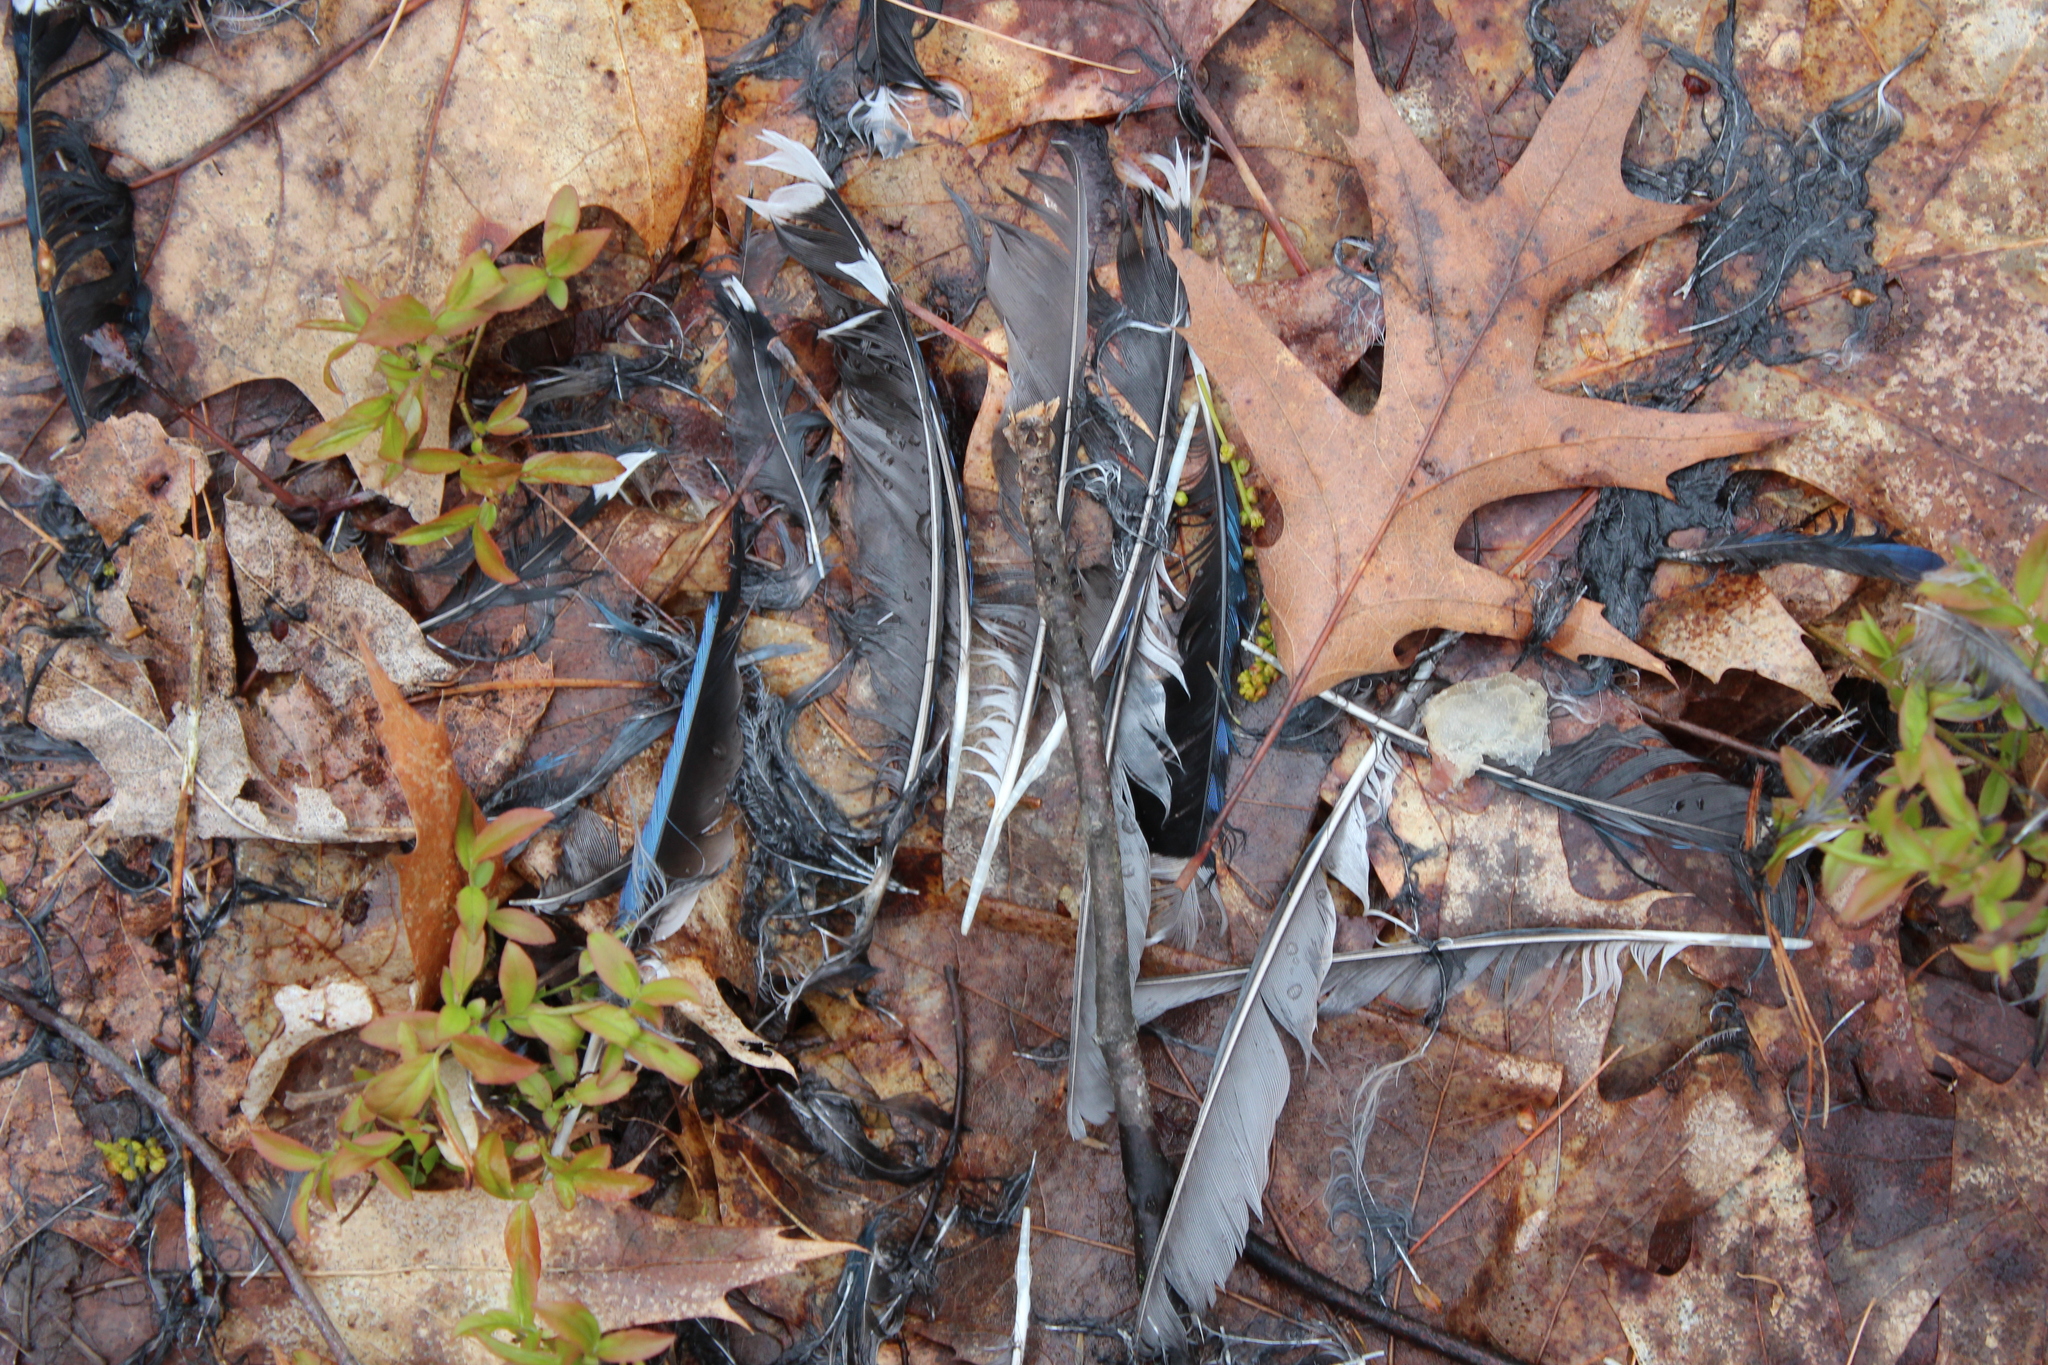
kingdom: Animalia
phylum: Chordata
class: Aves
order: Passeriformes
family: Corvidae
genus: Cyanocitta
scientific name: Cyanocitta cristata
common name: Blue jay
